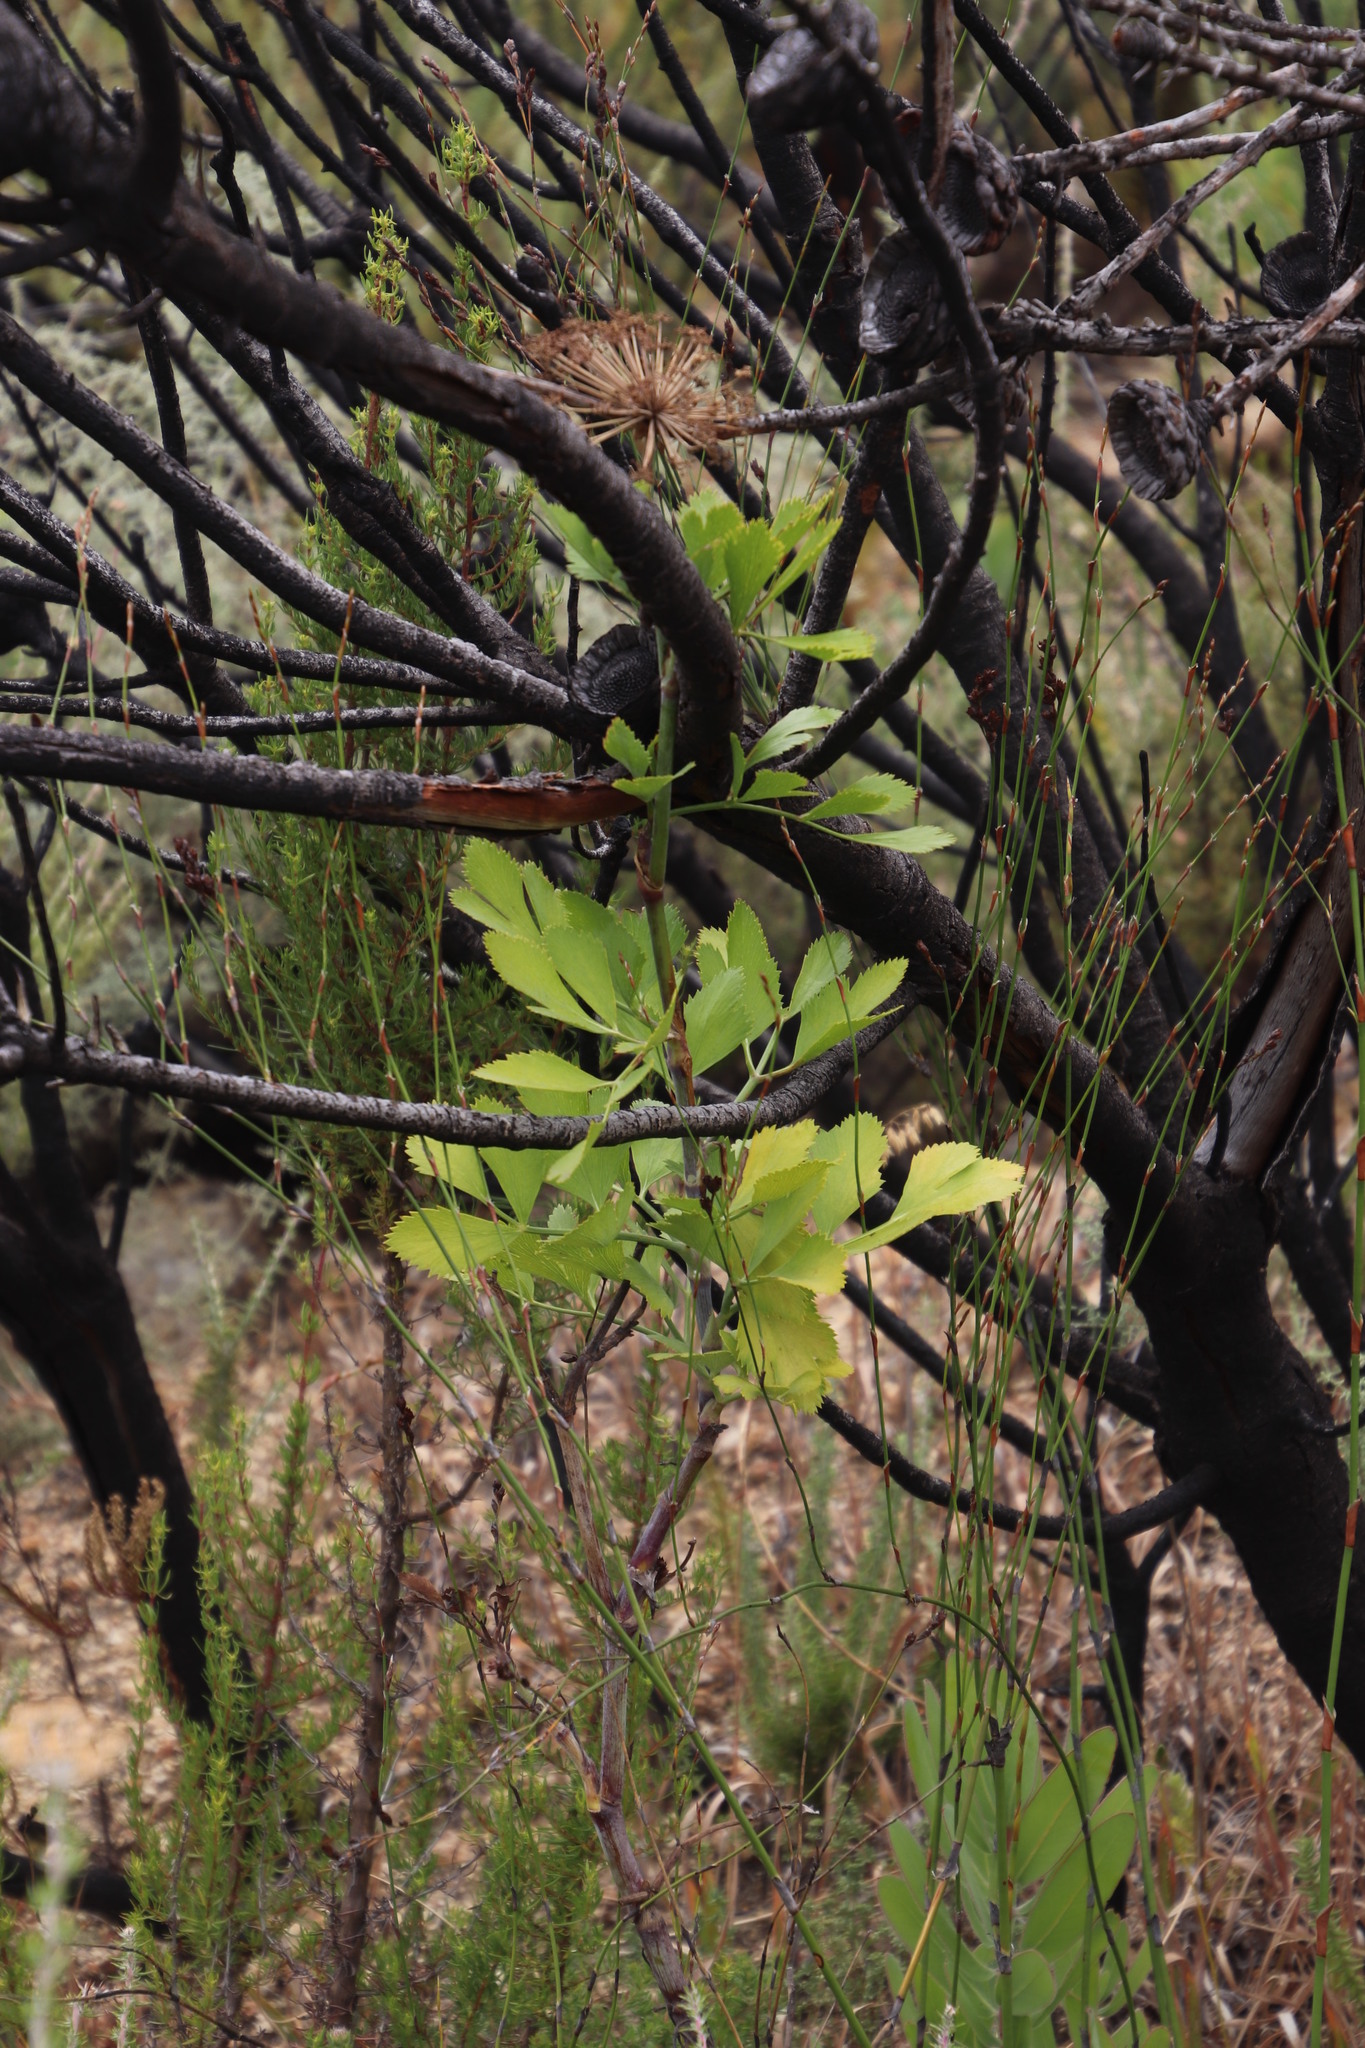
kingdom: Plantae
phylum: Tracheophyta
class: Magnoliopsida
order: Apiales
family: Apiaceae
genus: Notobubon
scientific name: Notobubon galbanum
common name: Blisterbush
